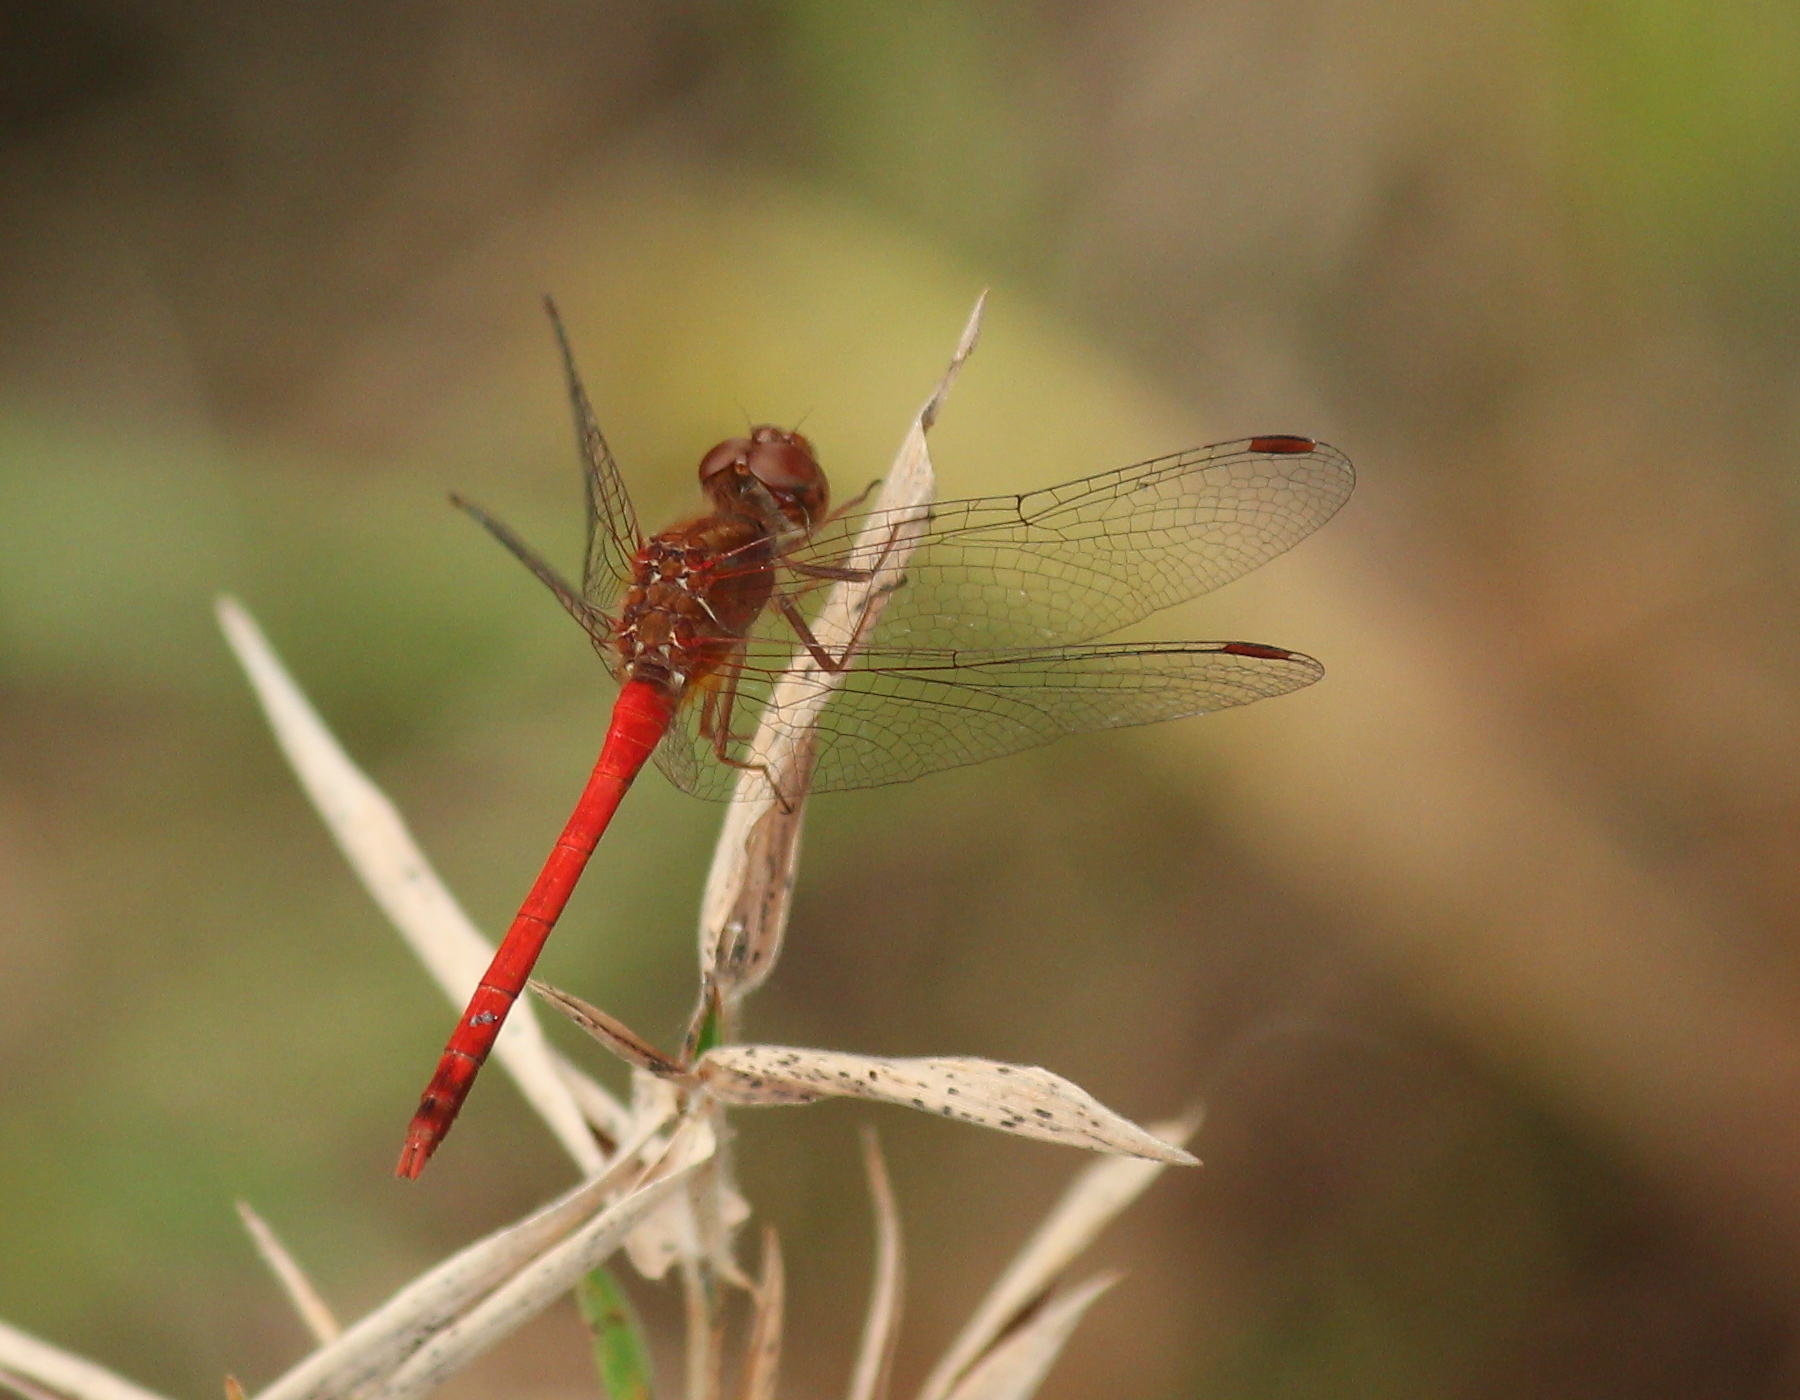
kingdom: Animalia
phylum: Arthropoda
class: Insecta
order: Odonata
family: Libellulidae
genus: Sympetrum
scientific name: Sympetrum vicinum
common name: Autumn meadowhawk
